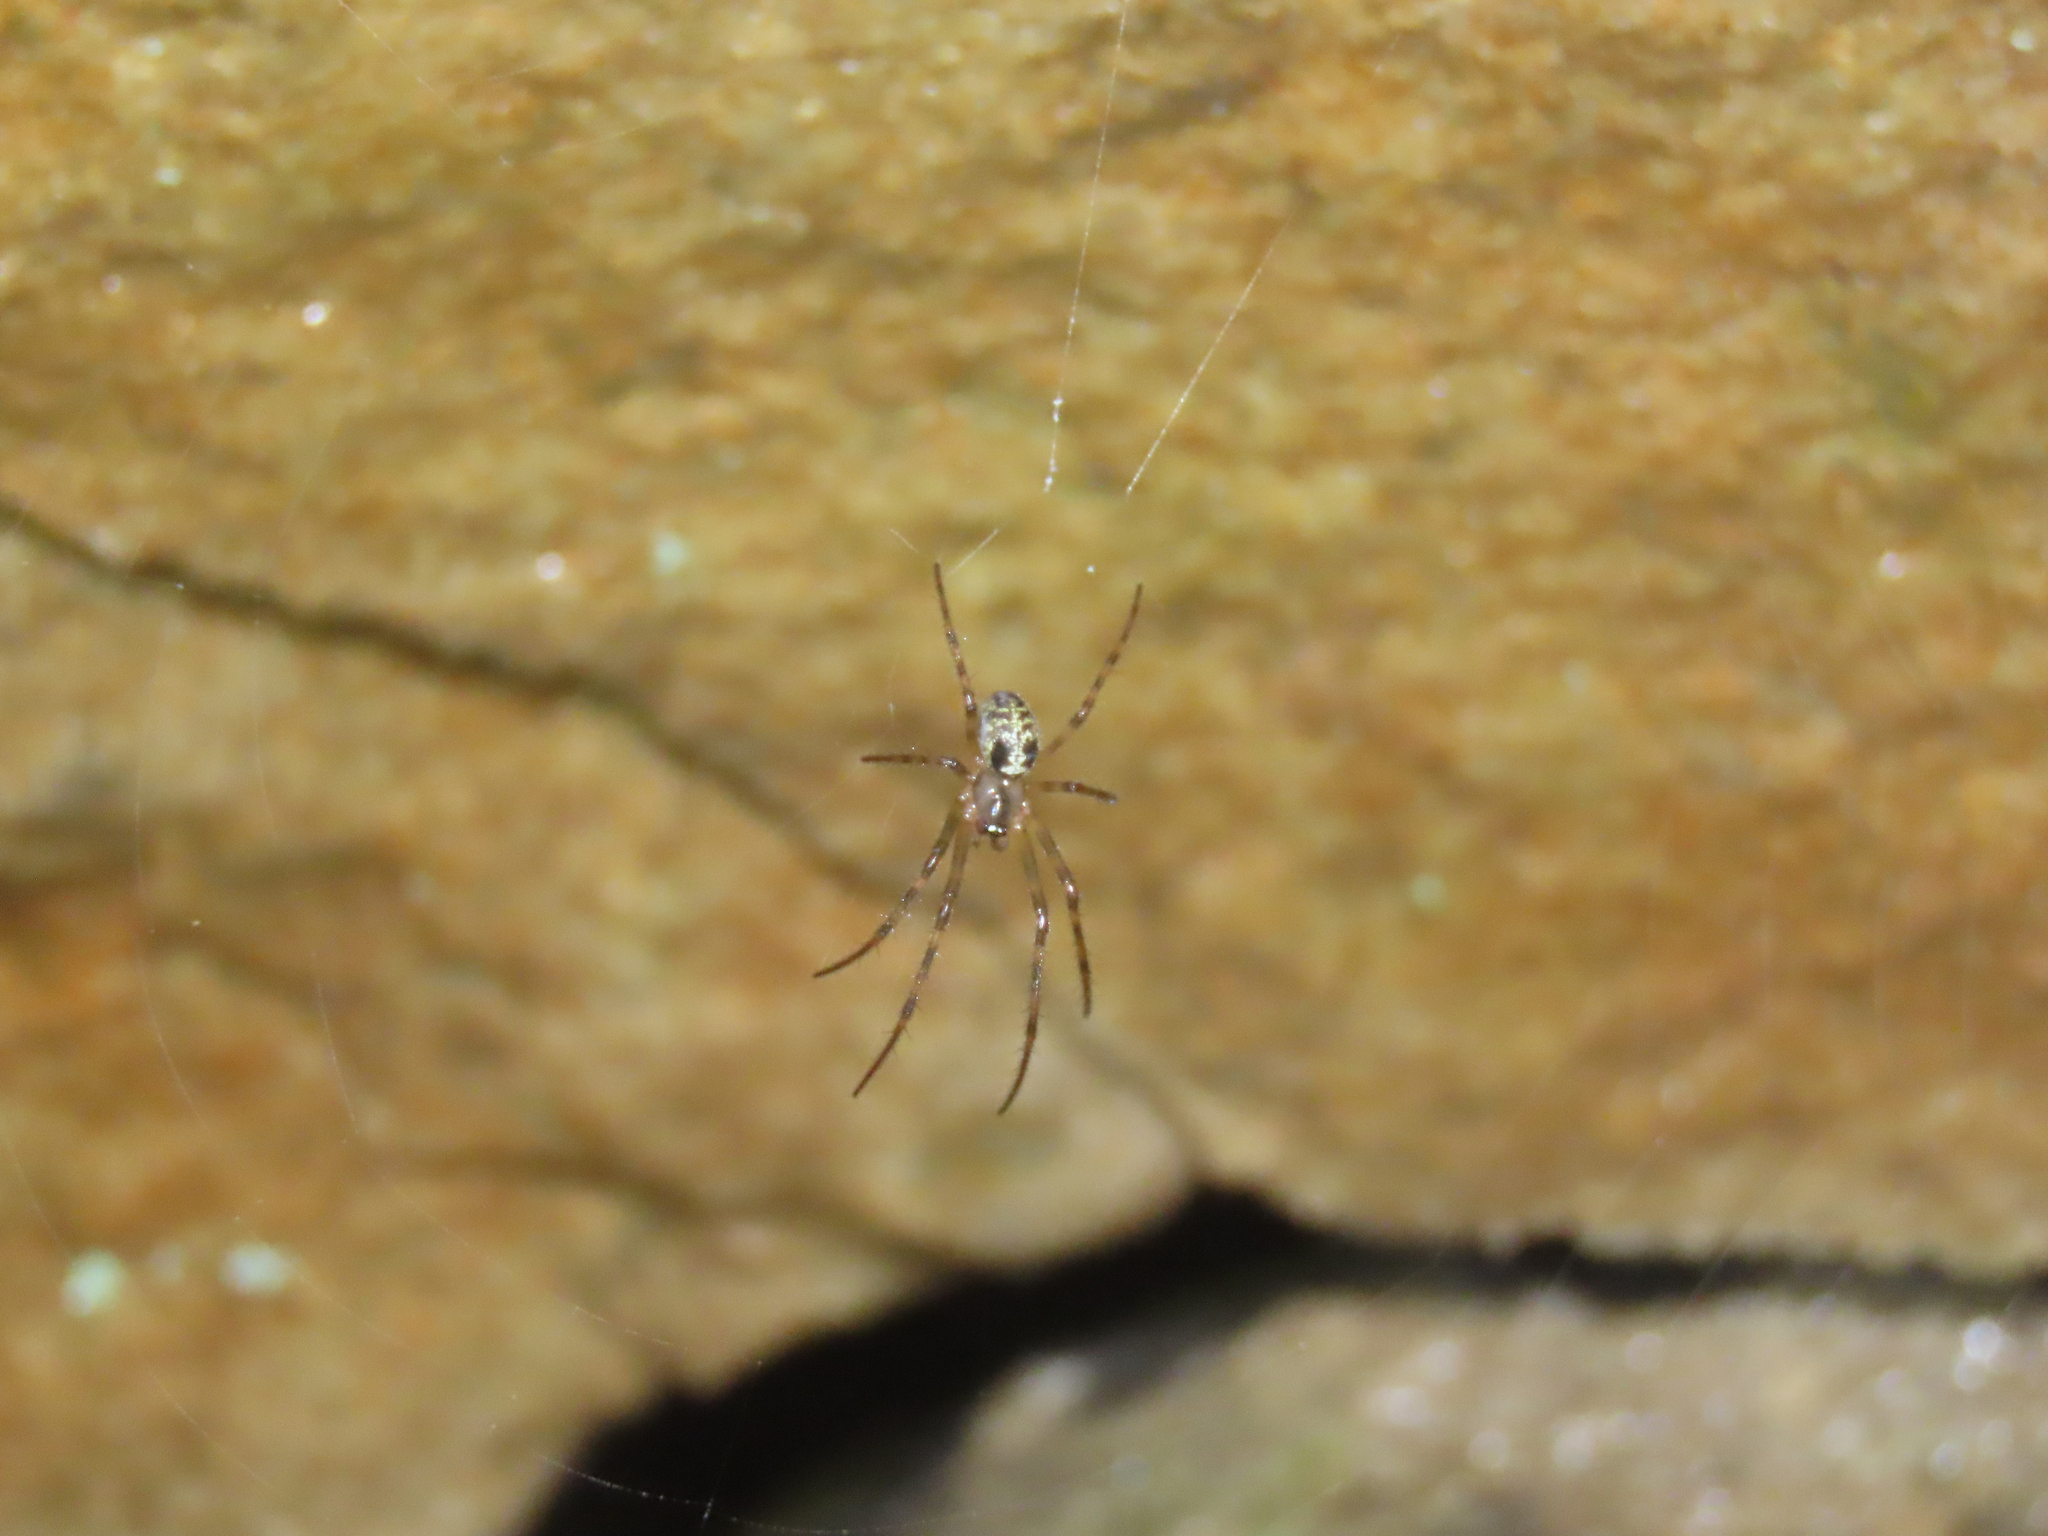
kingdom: Animalia
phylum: Arthropoda
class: Arachnida
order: Araneae
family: Tetragnathidae
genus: Meta
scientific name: Meta ovalis
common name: Eastern cave long-jawed spider
